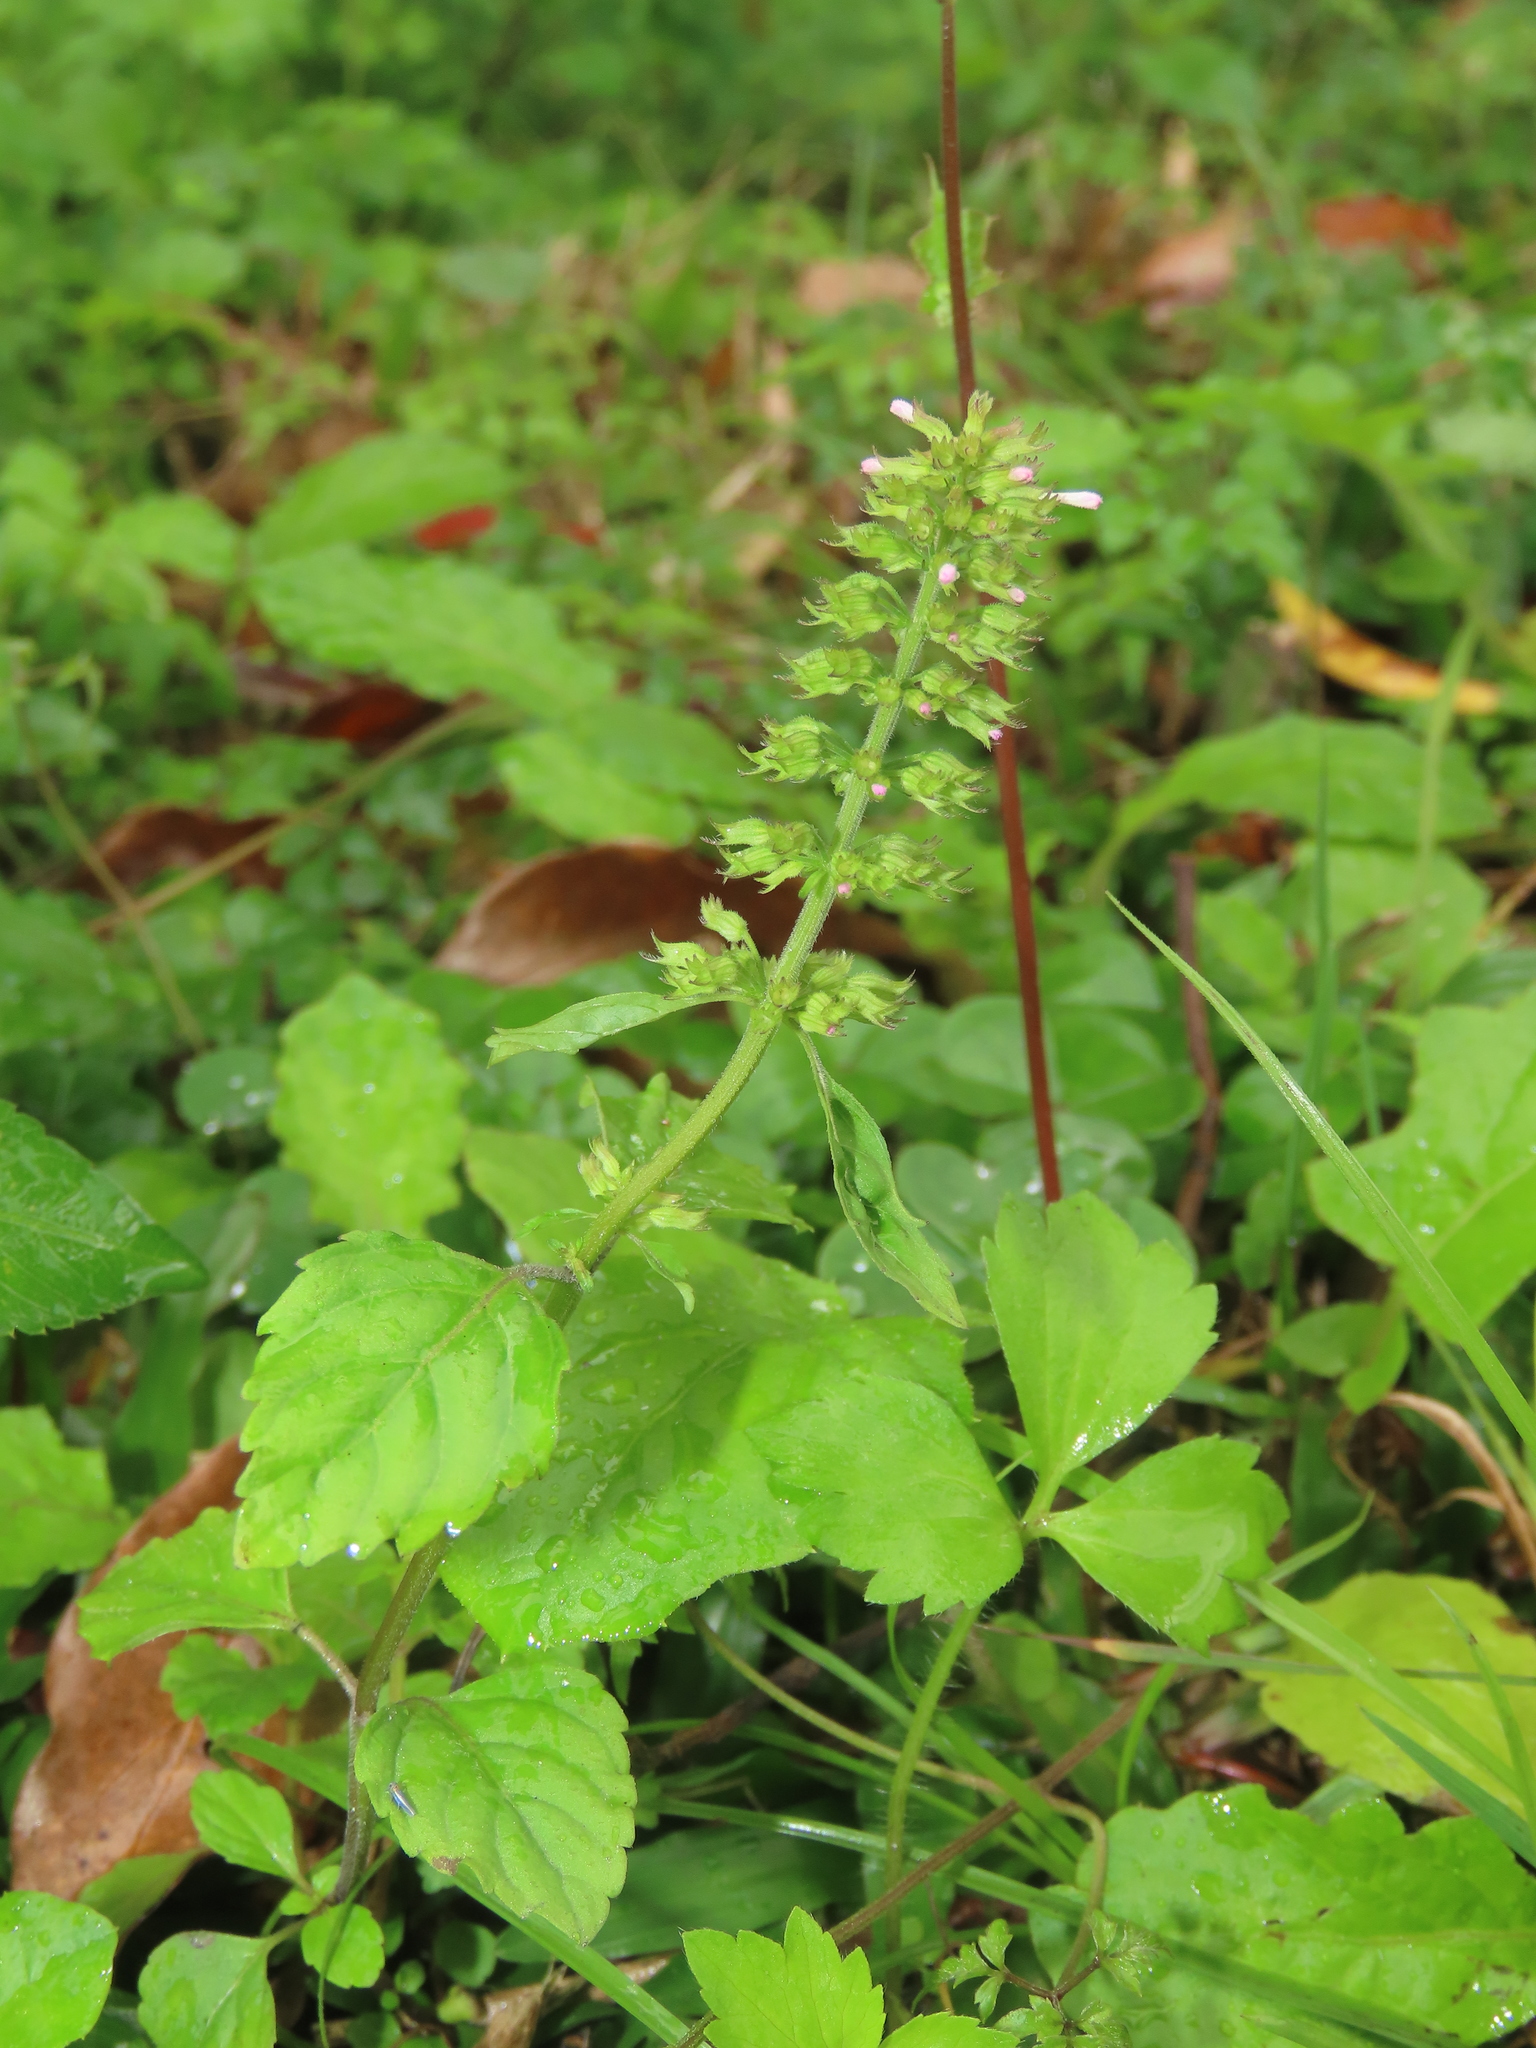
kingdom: Plantae
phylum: Tracheophyta
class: Magnoliopsida
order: Lamiales
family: Lamiaceae
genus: Clinopodium
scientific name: Clinopodium gracile
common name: Slender wild basil
